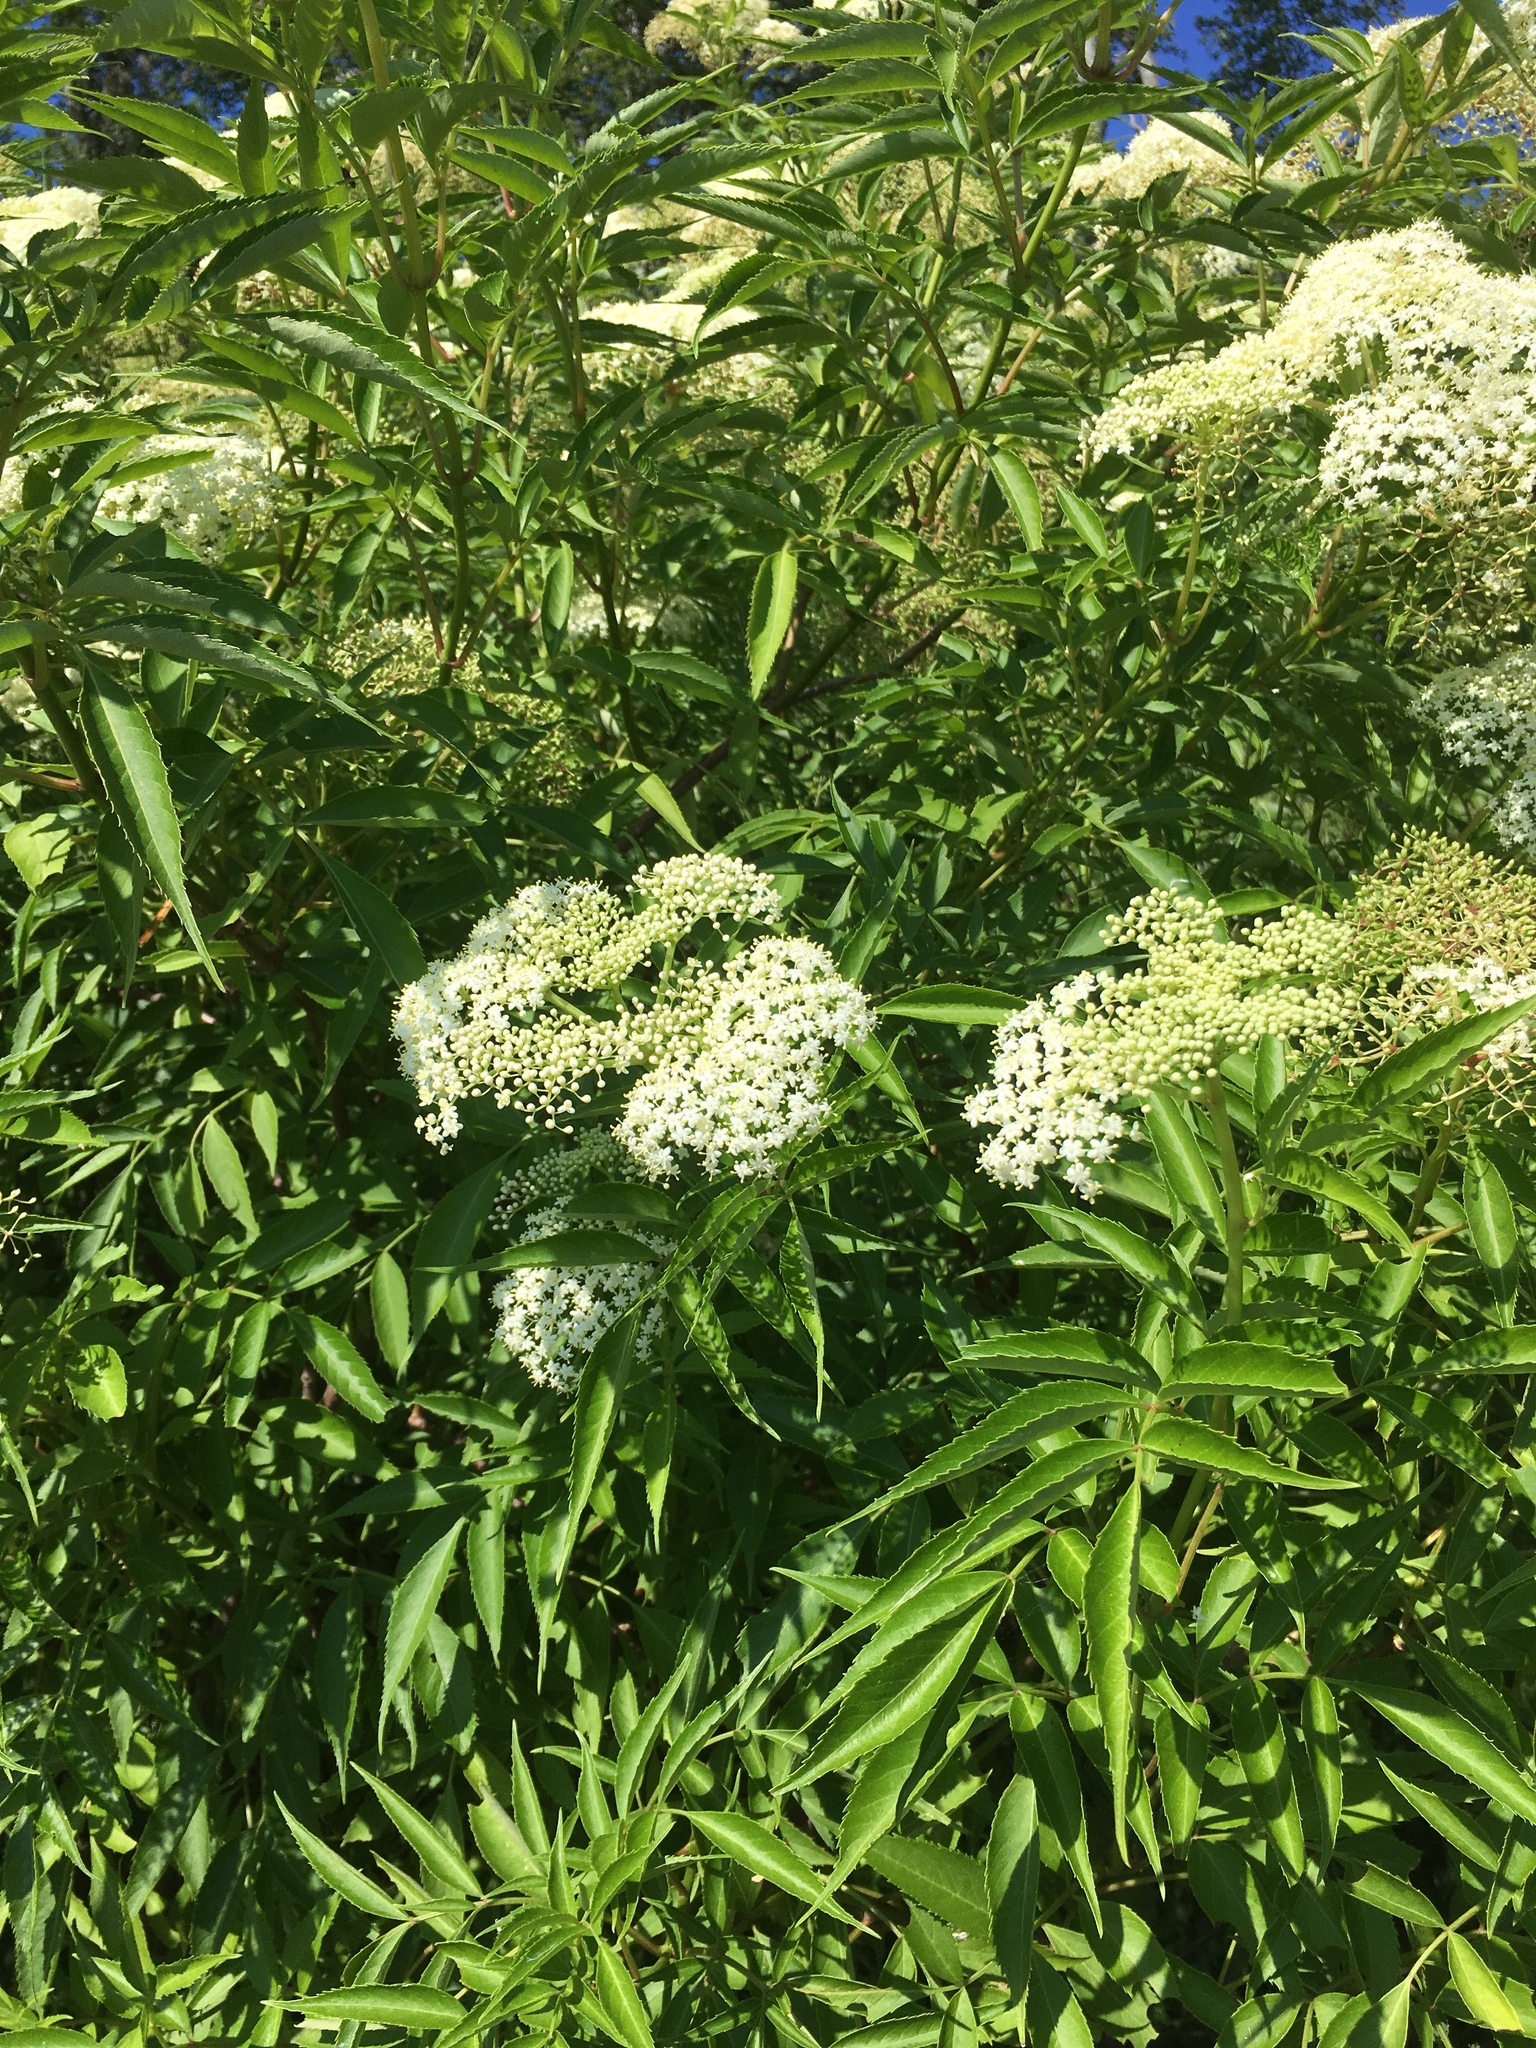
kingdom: Plantae
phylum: Tracheophyta
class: Magnoliopsida
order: Dipsacales
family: Viburnaceae
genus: Sambucus
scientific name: Sambucus canadensis
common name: American elder
